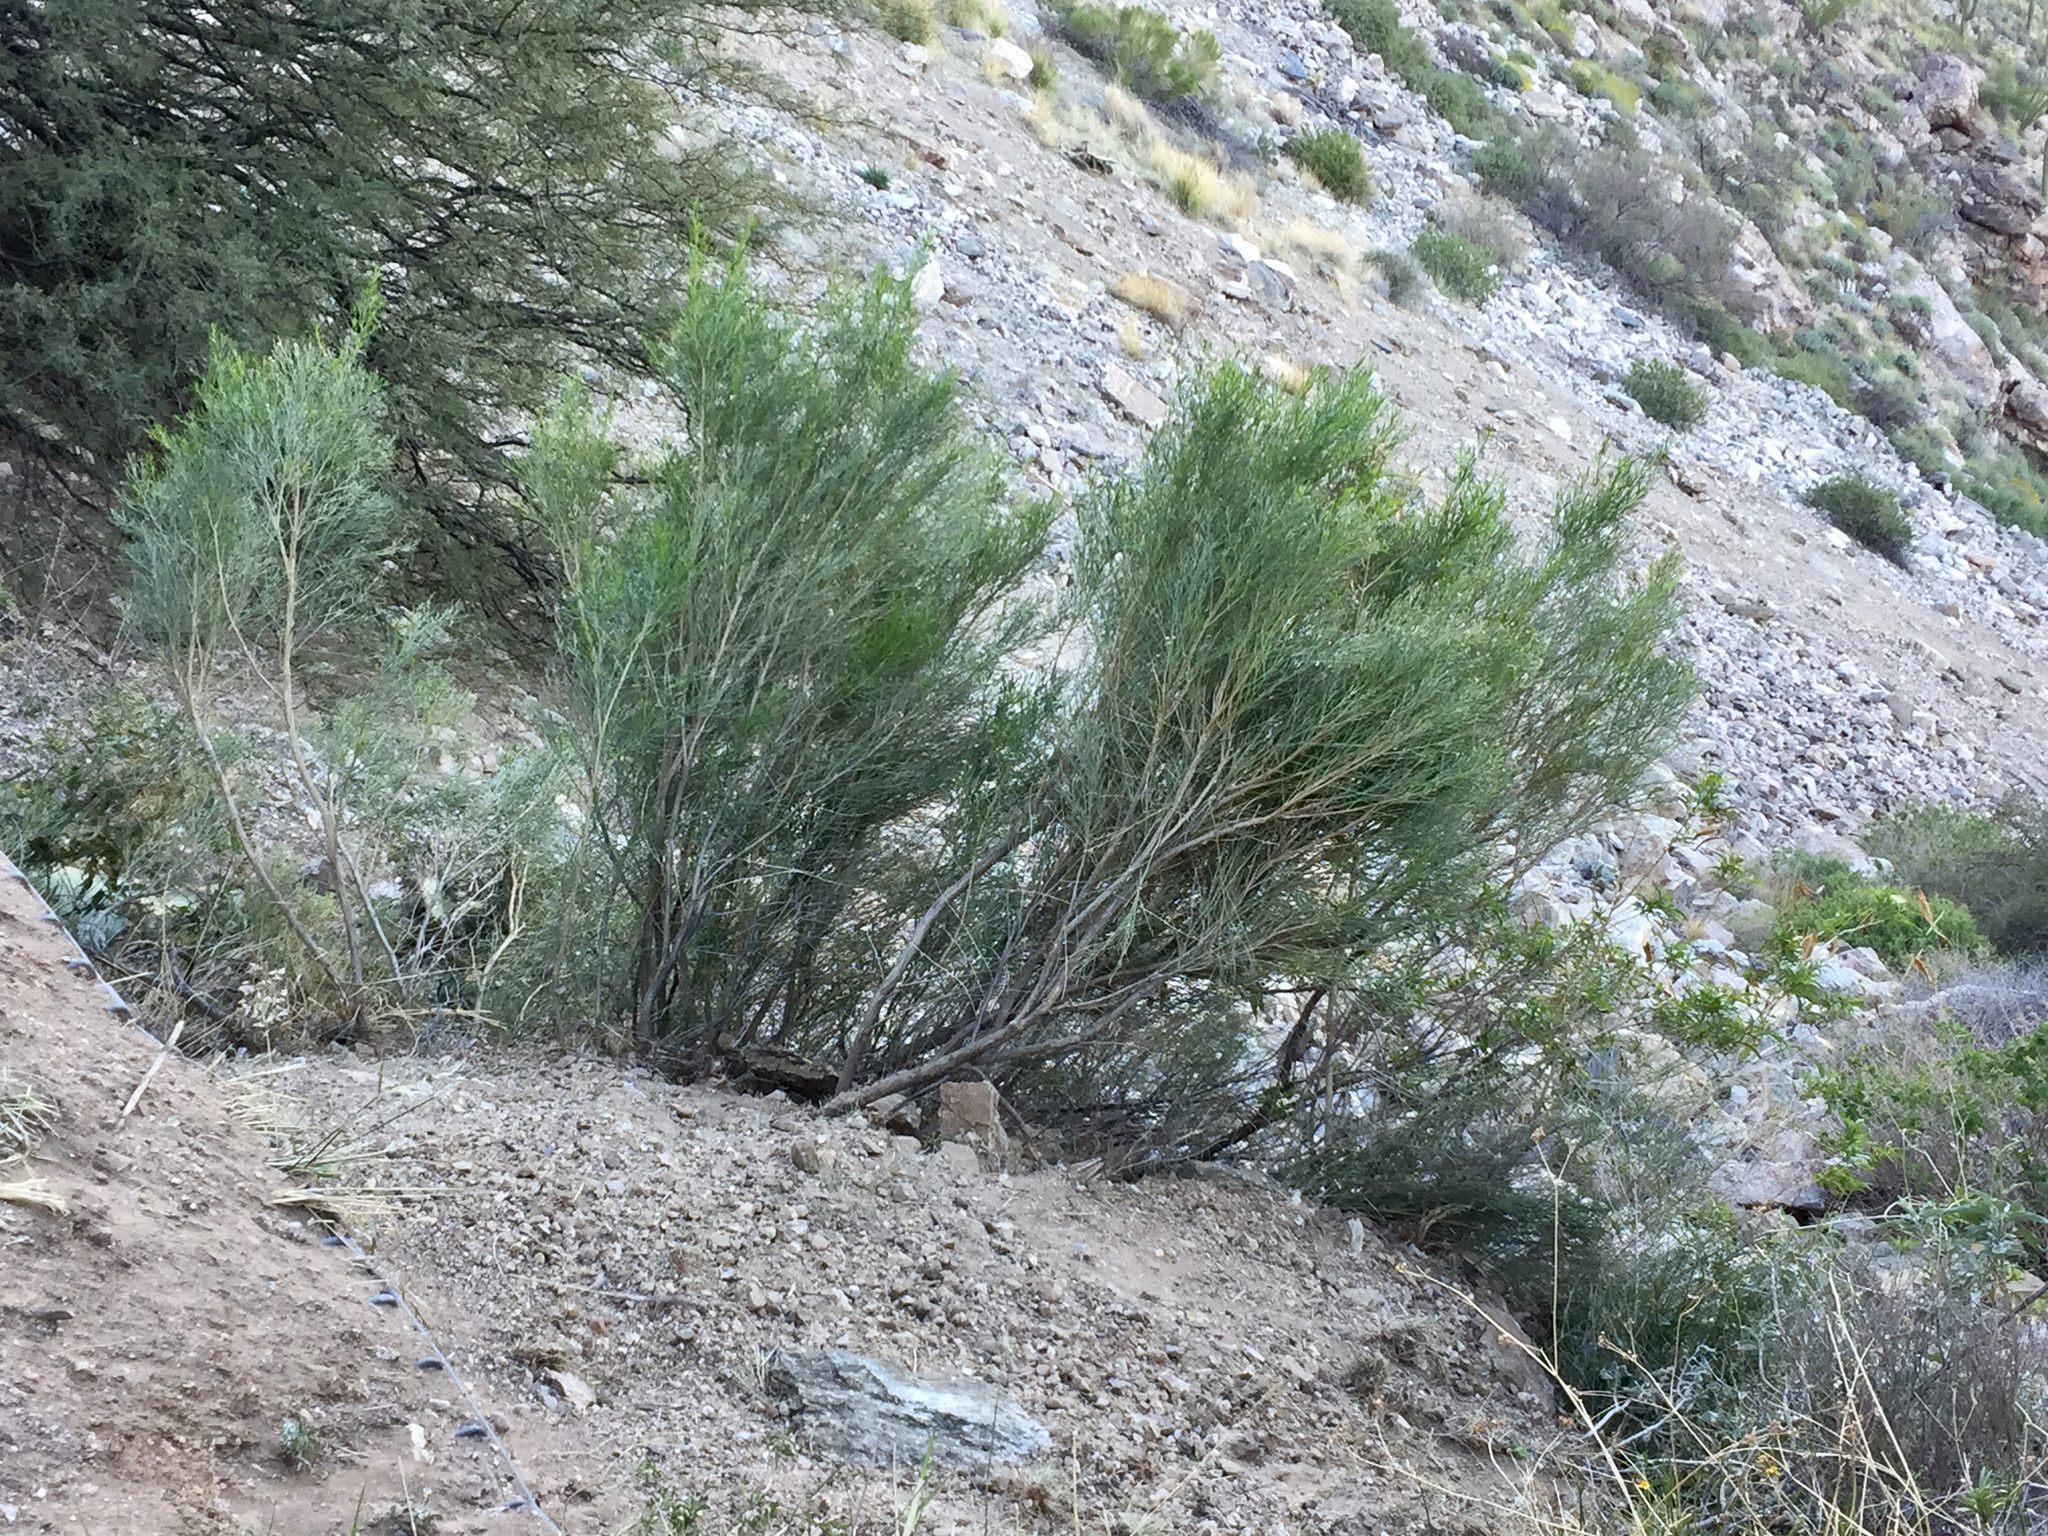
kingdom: Plantae
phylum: Tracheophyta
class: Magnoliopsida
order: Asterales
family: Asteraceae
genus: Baccharis
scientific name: Baccharis sarothroides
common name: Desert-broom
